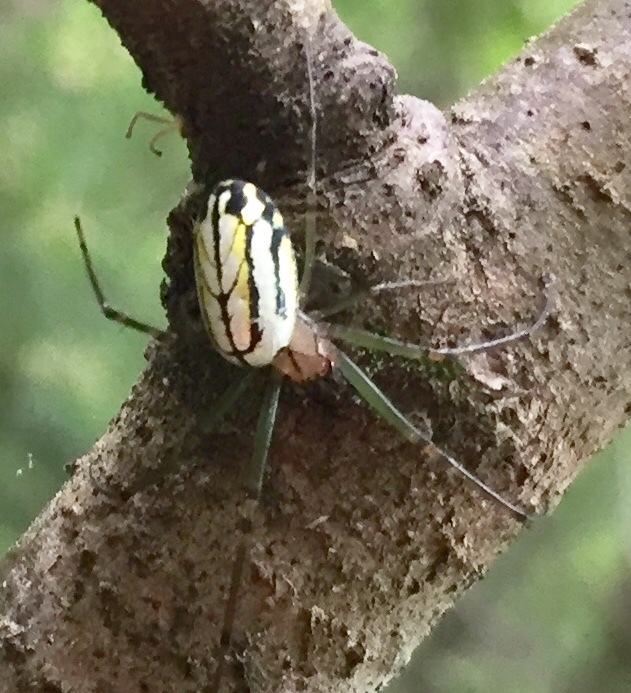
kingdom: Animalia
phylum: Arthropoda
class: Arachnida
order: Araneae
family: Tetragnathidae
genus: Leucauge
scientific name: Leucauge venusta
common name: Longjawed orb weavers
